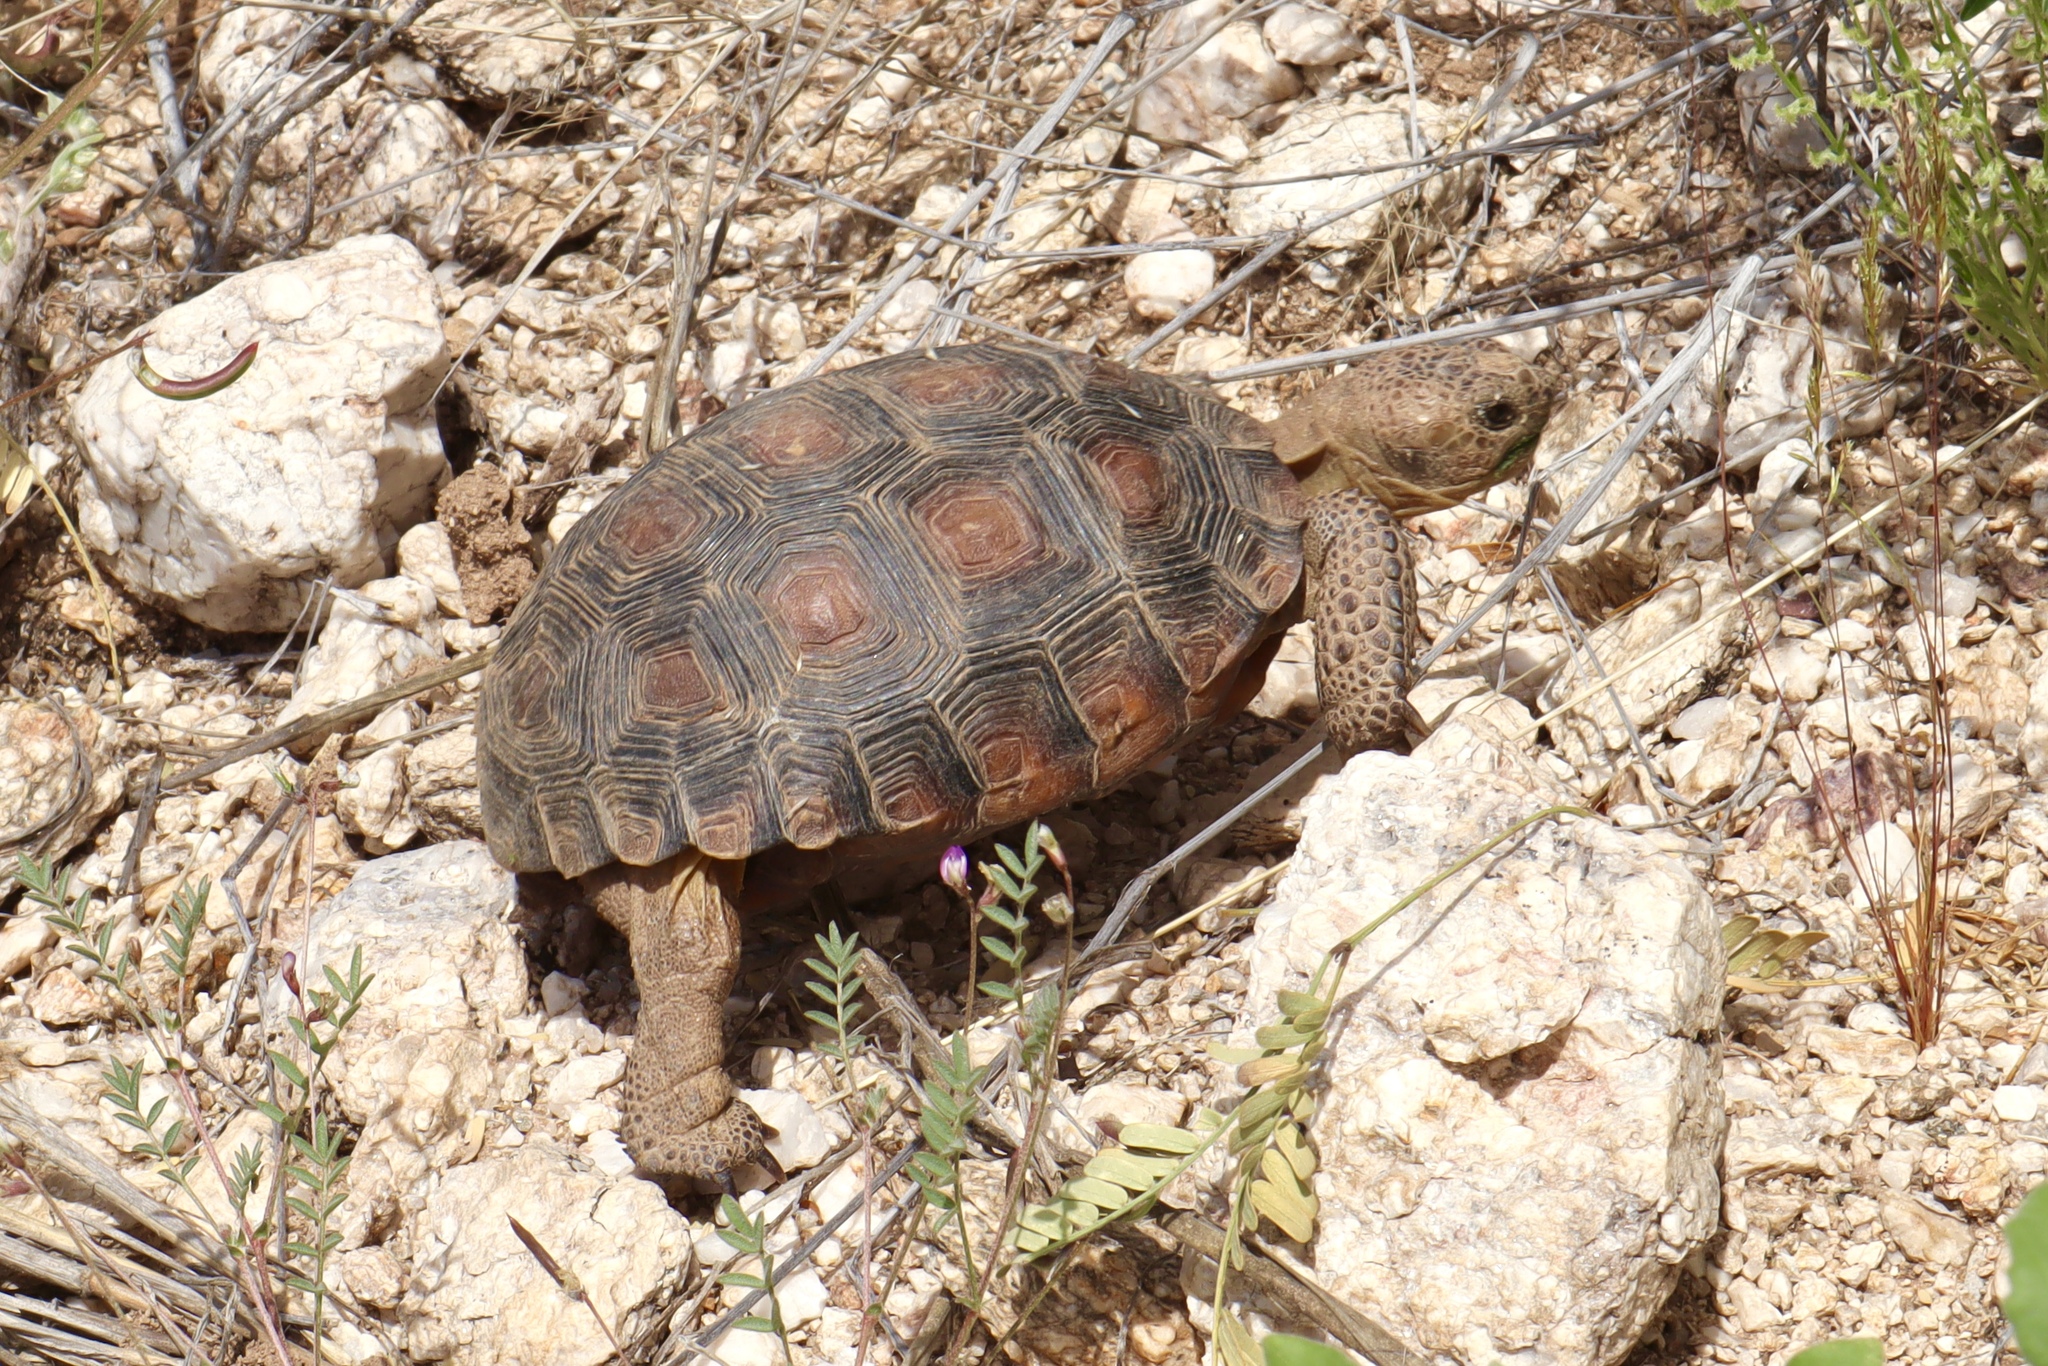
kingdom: Animalia
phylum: Chordata
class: Testudines
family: Testudinidae
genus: Gopherus
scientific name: Gopherus morafkai
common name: Sonoran desert tortoise
